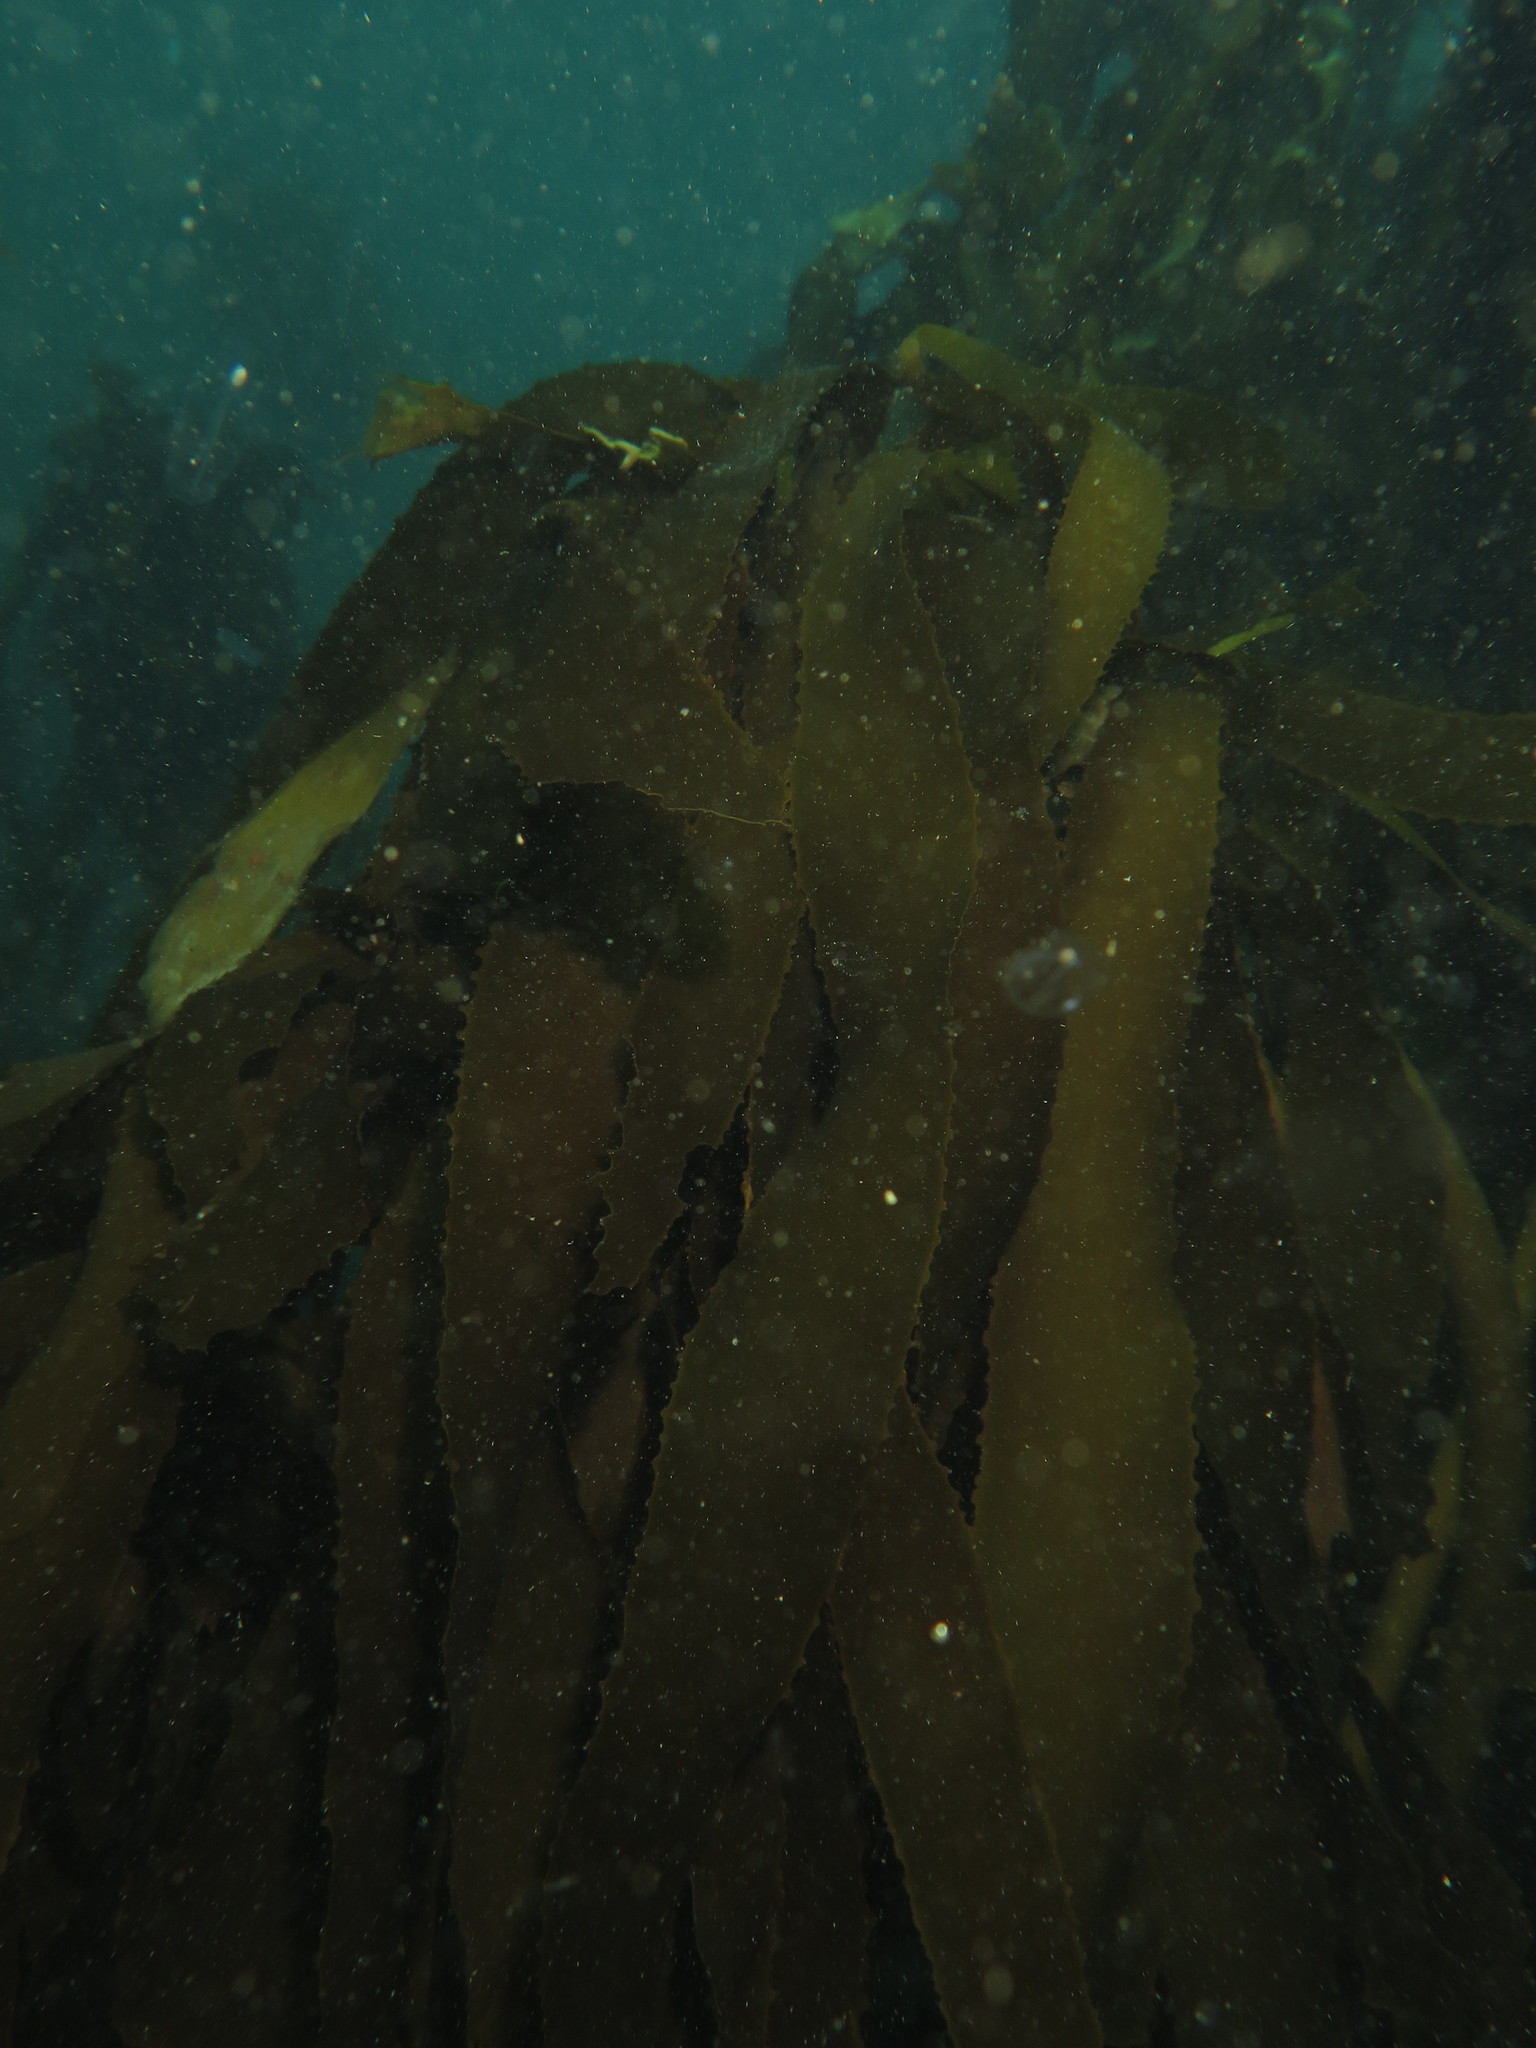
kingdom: Chromista
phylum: Ochrophyta
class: Phaeophyceae
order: Laminariales
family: Lessoniaceae
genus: Ecklonia
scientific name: Ecklonia
